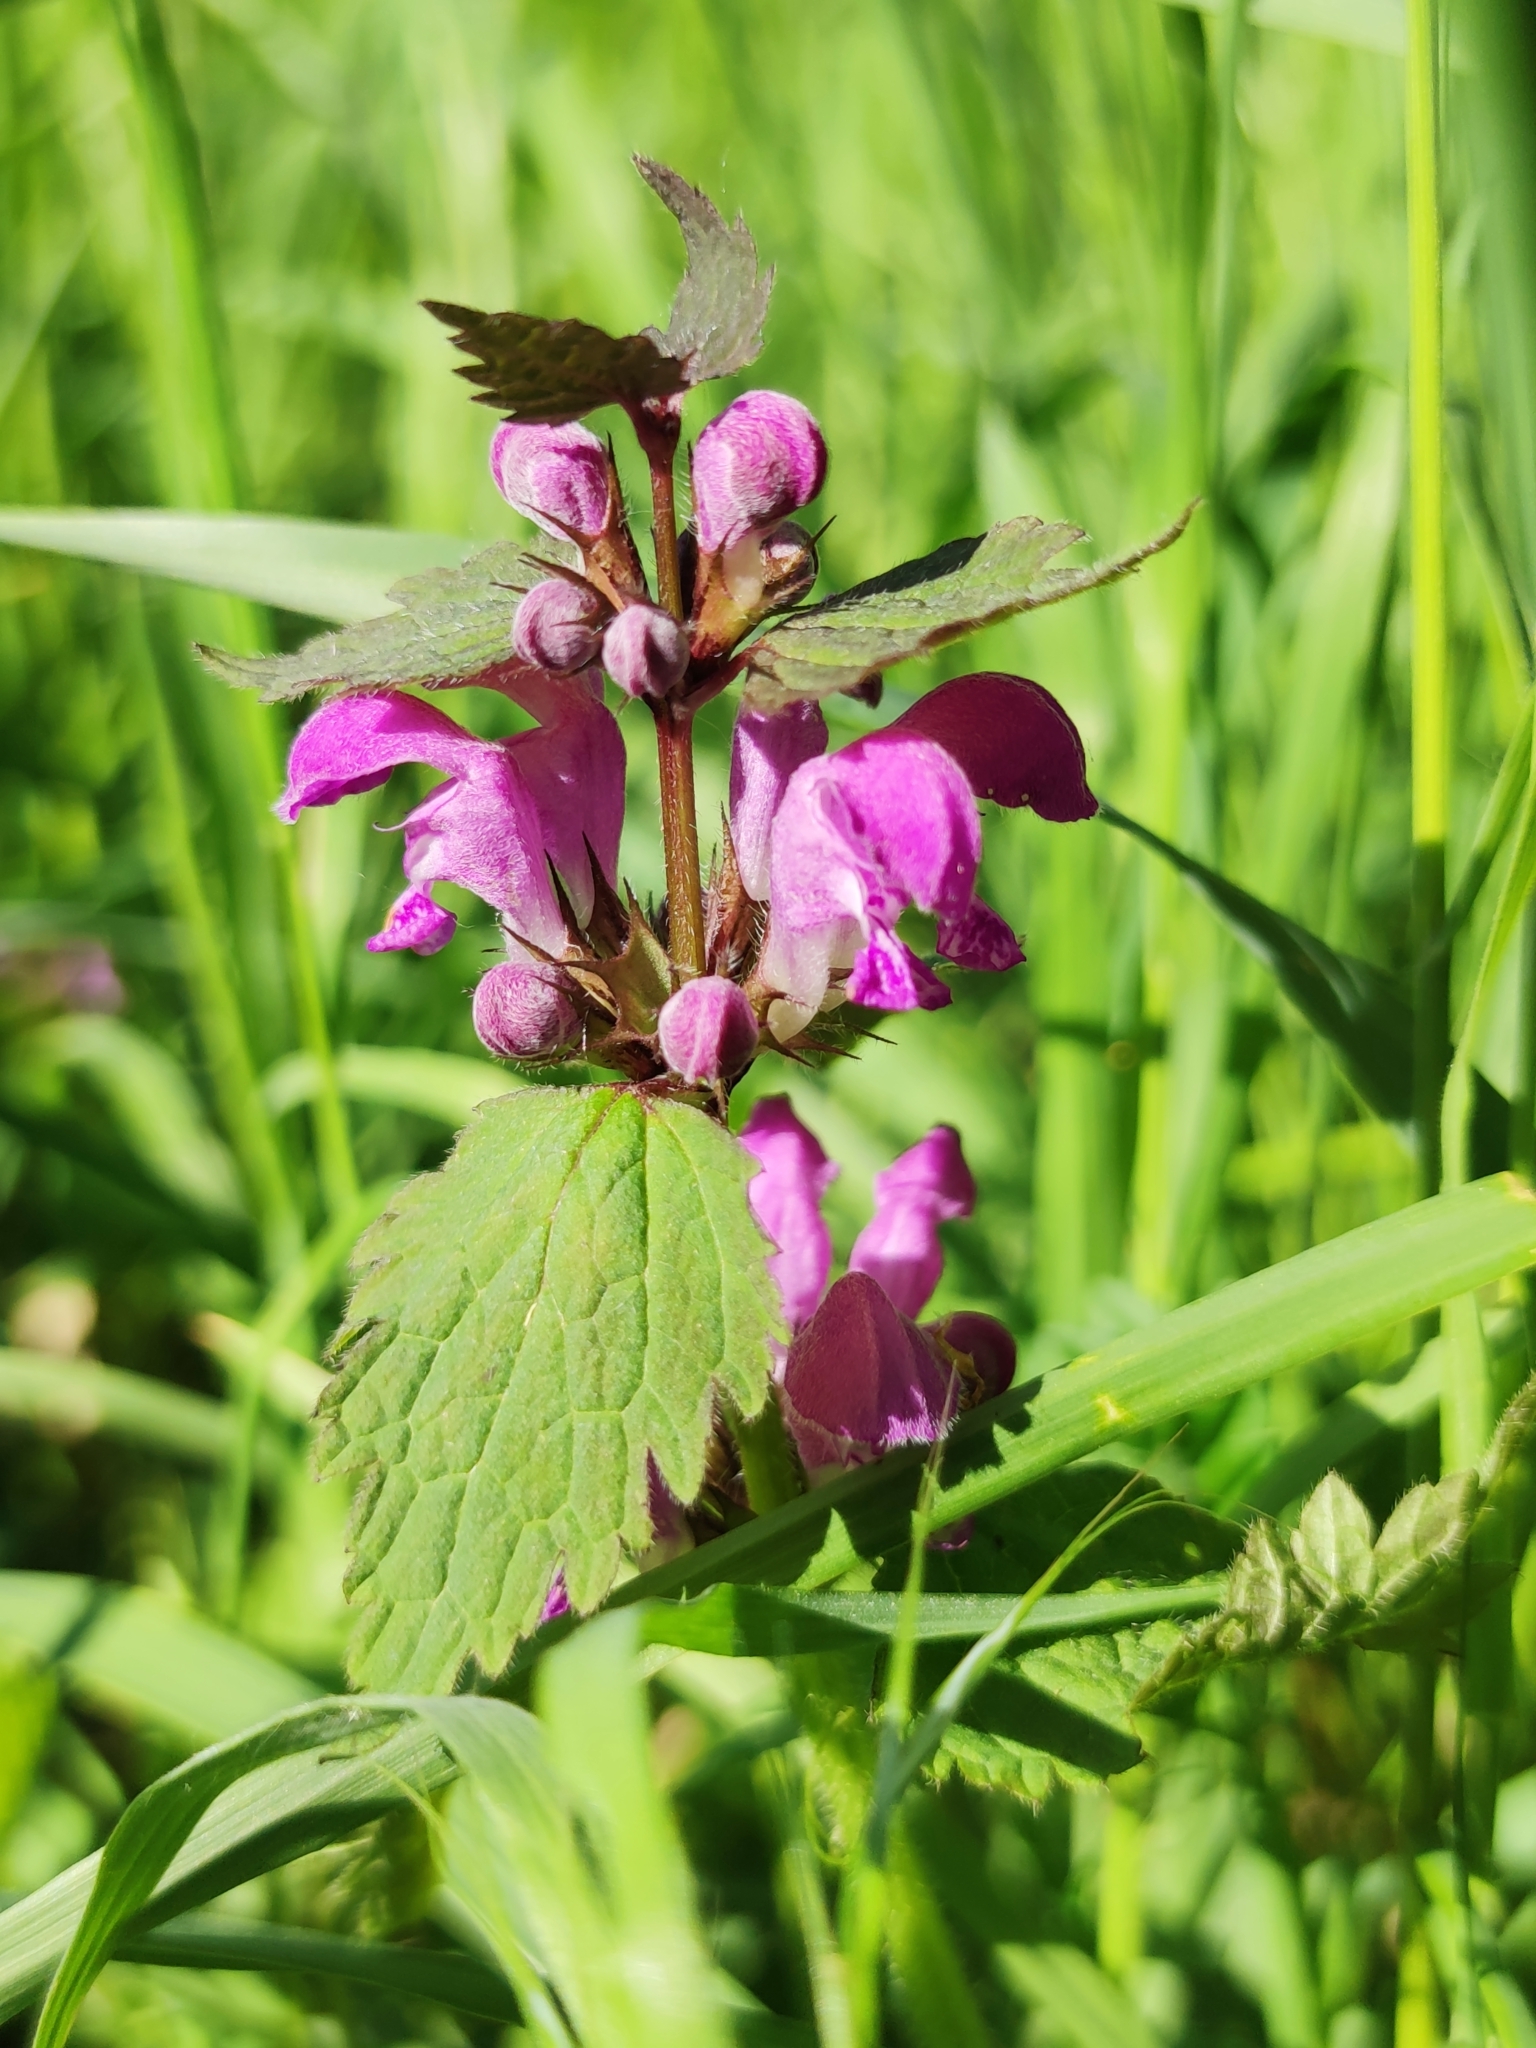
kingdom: Plantae
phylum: Tracheophyta
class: Magnoliopsida
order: Lamiales
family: Lamiaceae
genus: Lamium
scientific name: Lamium maculatum
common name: Spotted dead-nettle
